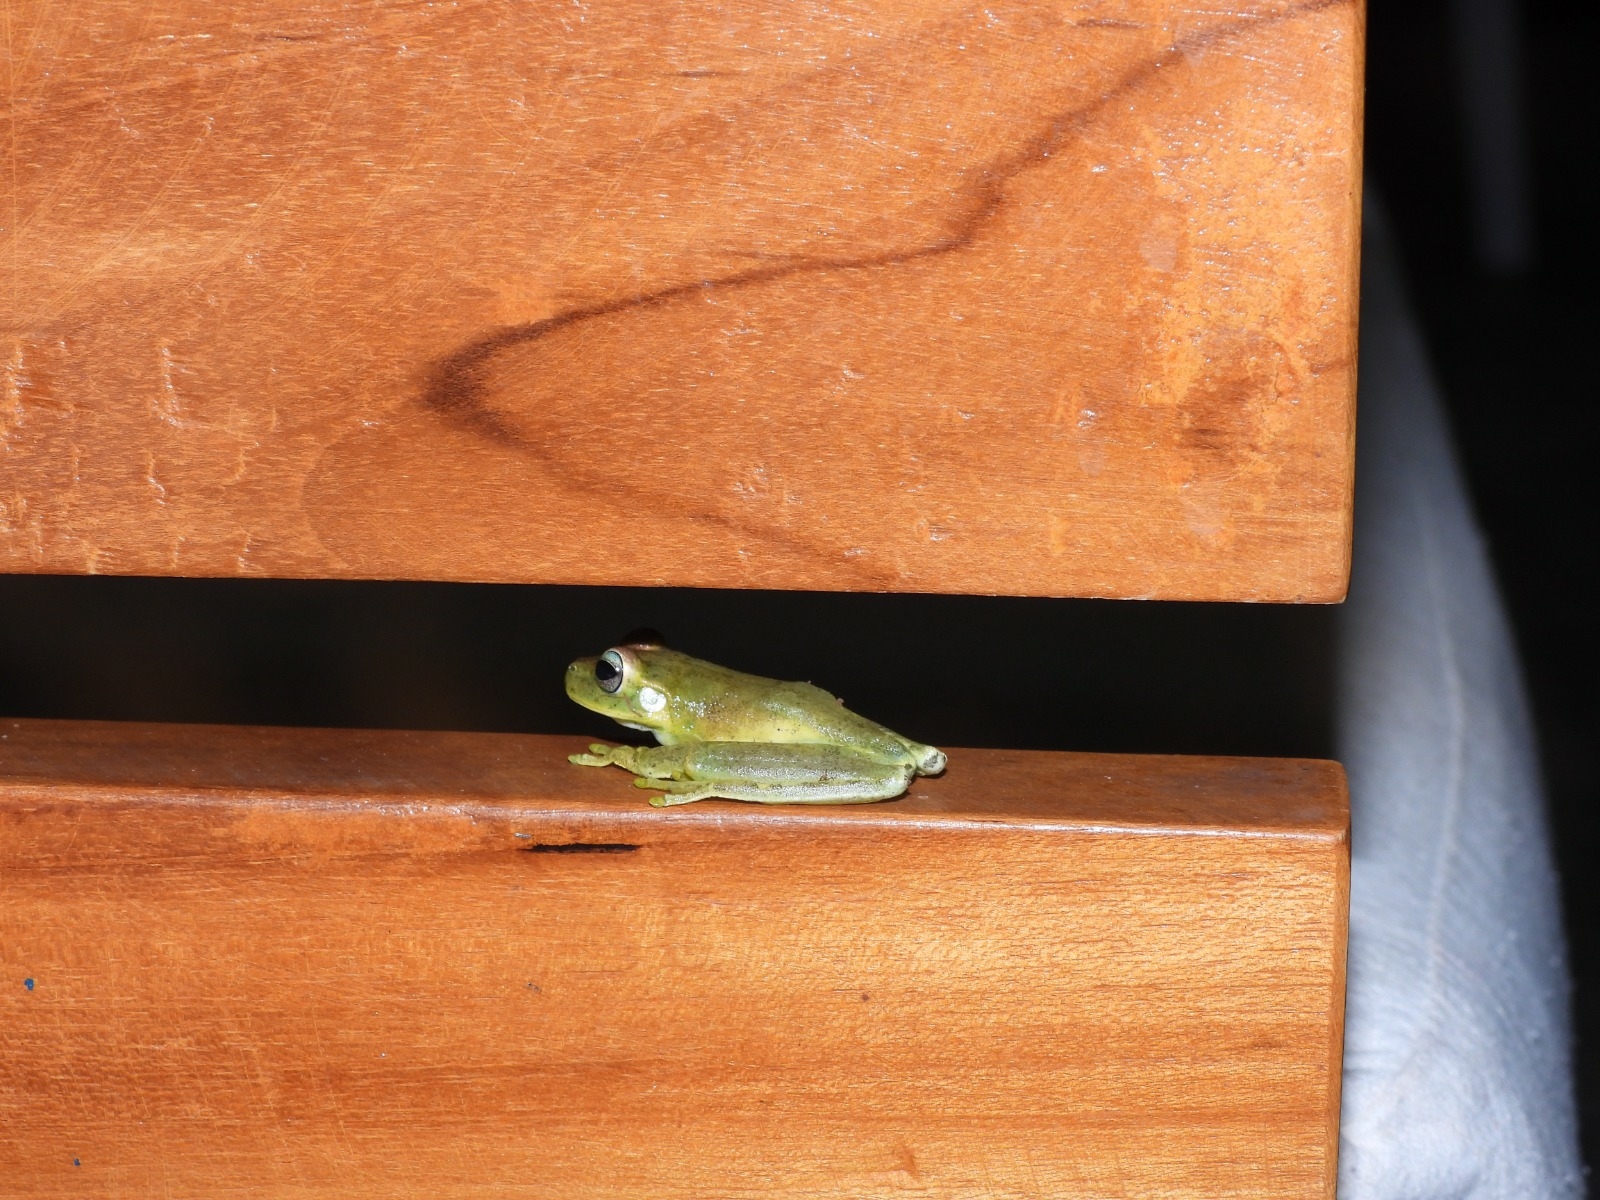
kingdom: Animalia
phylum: Chordata
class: Amphibia
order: Anura
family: Hylidae
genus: Boana
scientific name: Boana pugnax
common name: Chirique-flusse treefrog
